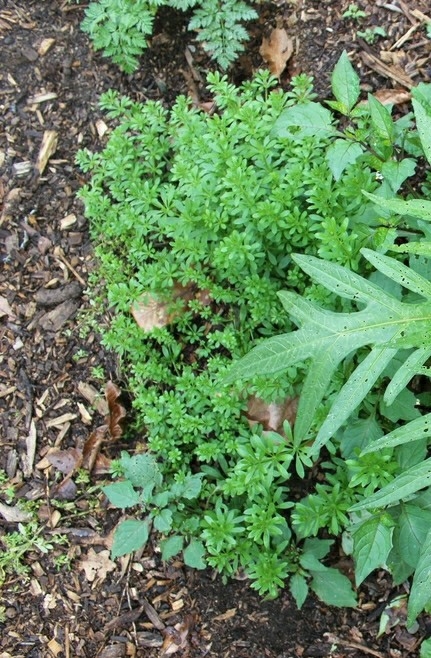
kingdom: Plantae
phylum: Tracheophyta
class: Magnoliopsida
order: Gentianales
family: Rubiaceae
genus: Galium
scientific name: Galium aparine
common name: Cleavers
